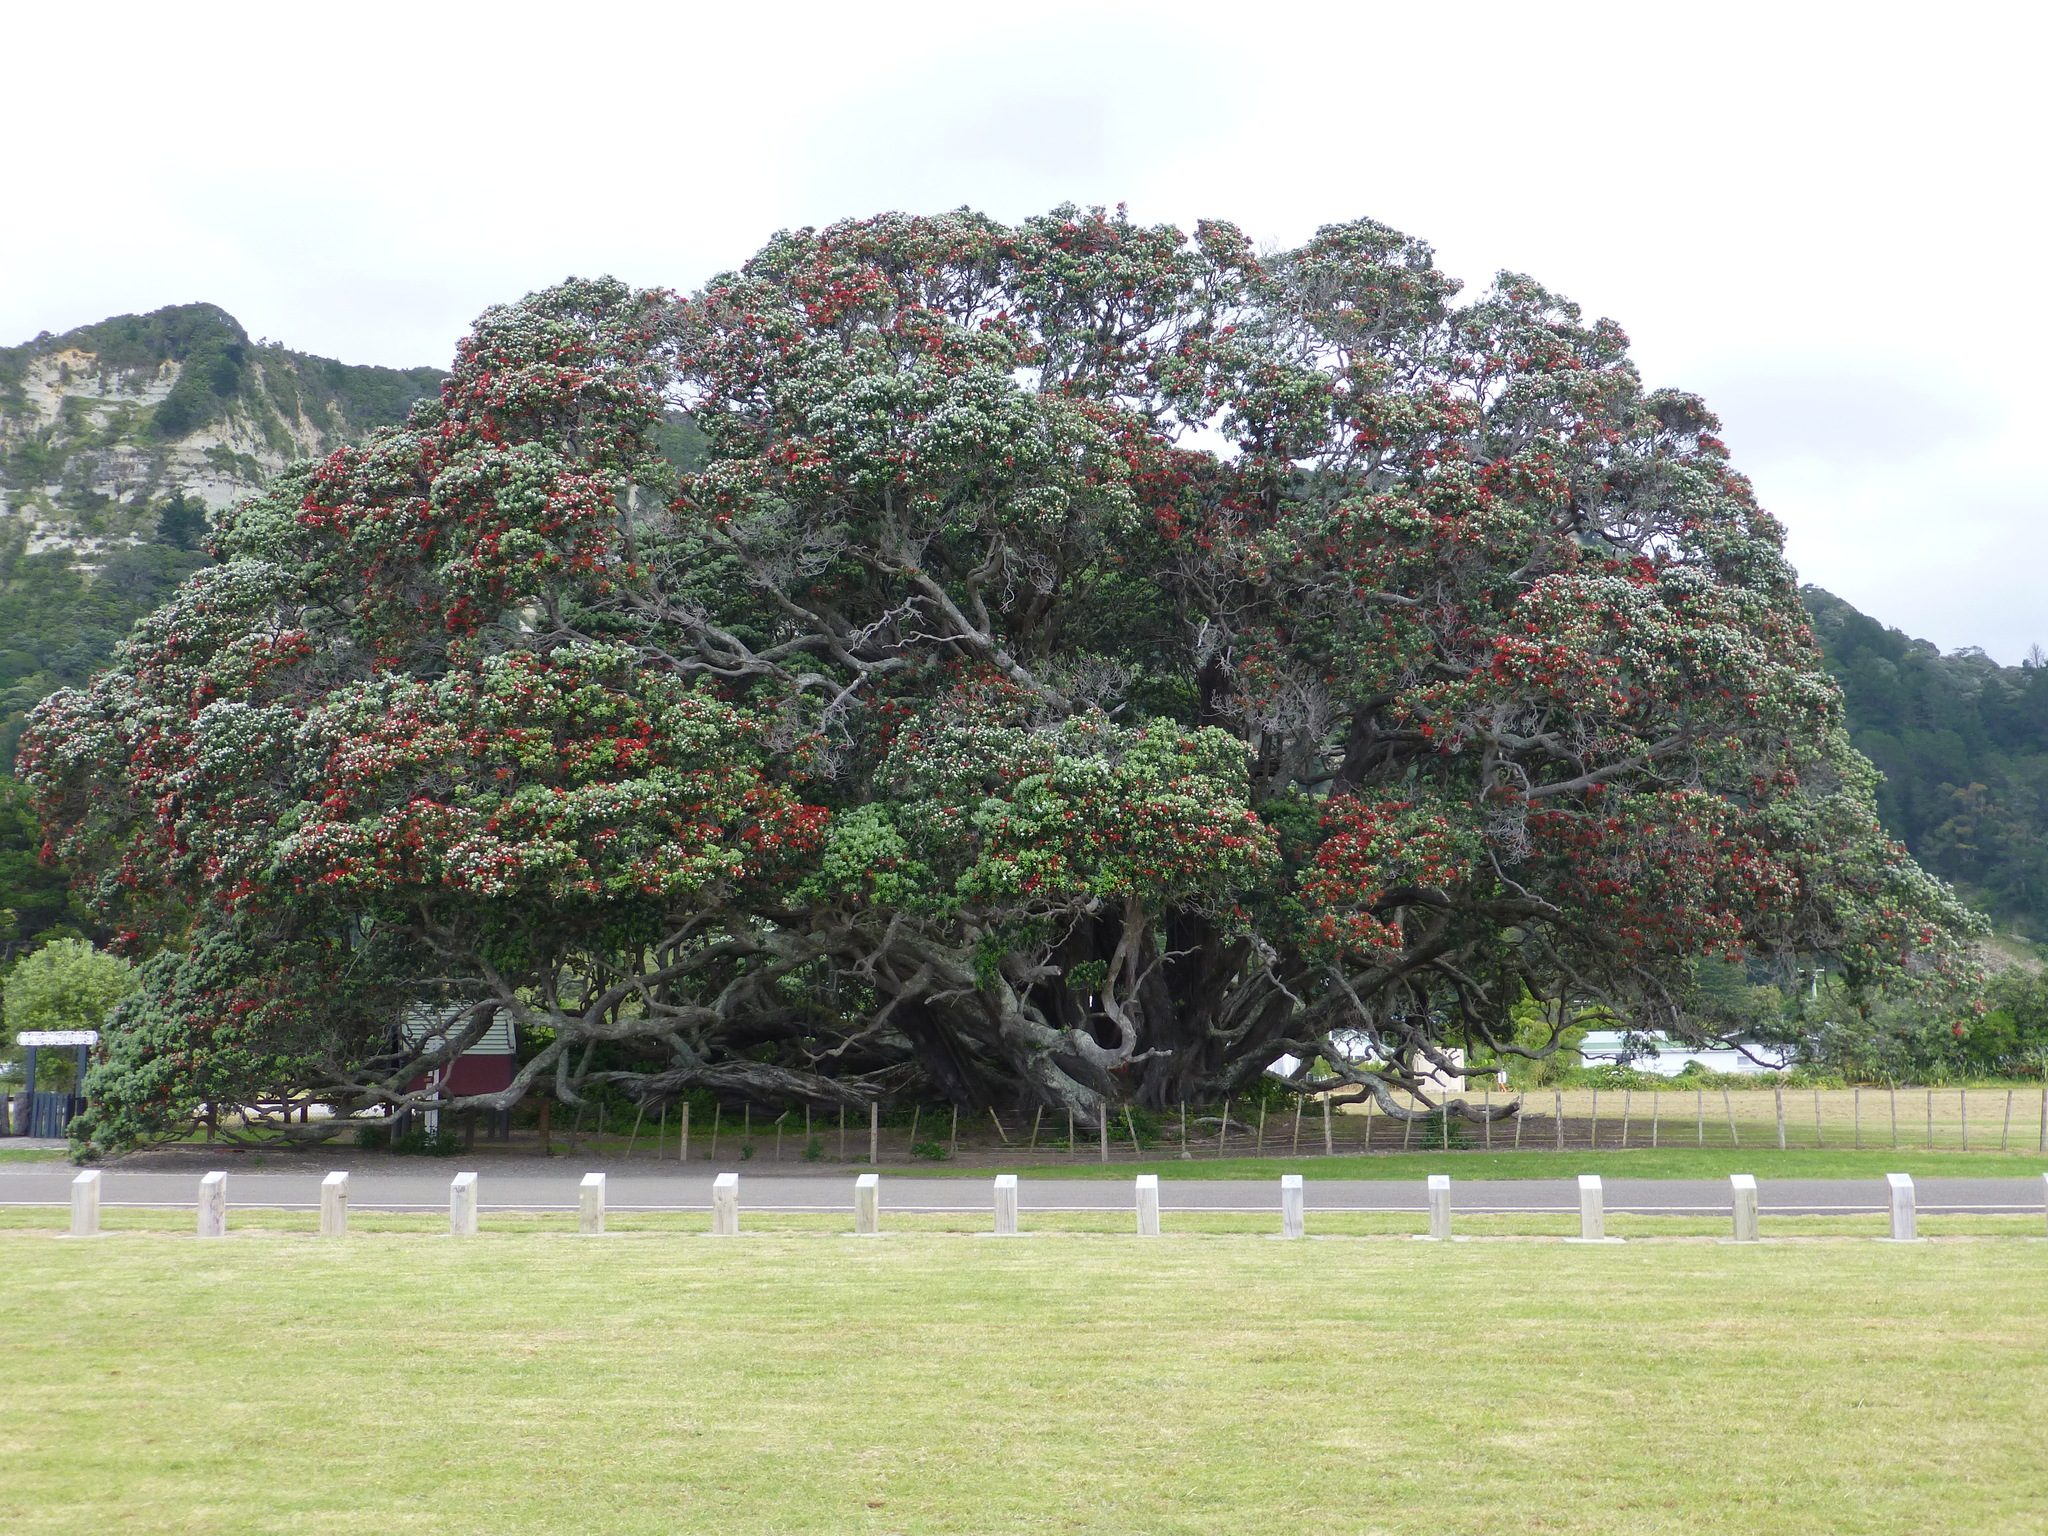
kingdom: Plantae
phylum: Tracheophyta
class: Magnoliopsida
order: Myrtales
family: Myrtaceae
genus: Metrosideros
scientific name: Metrosideros excelsa
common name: New zealand christmastree
